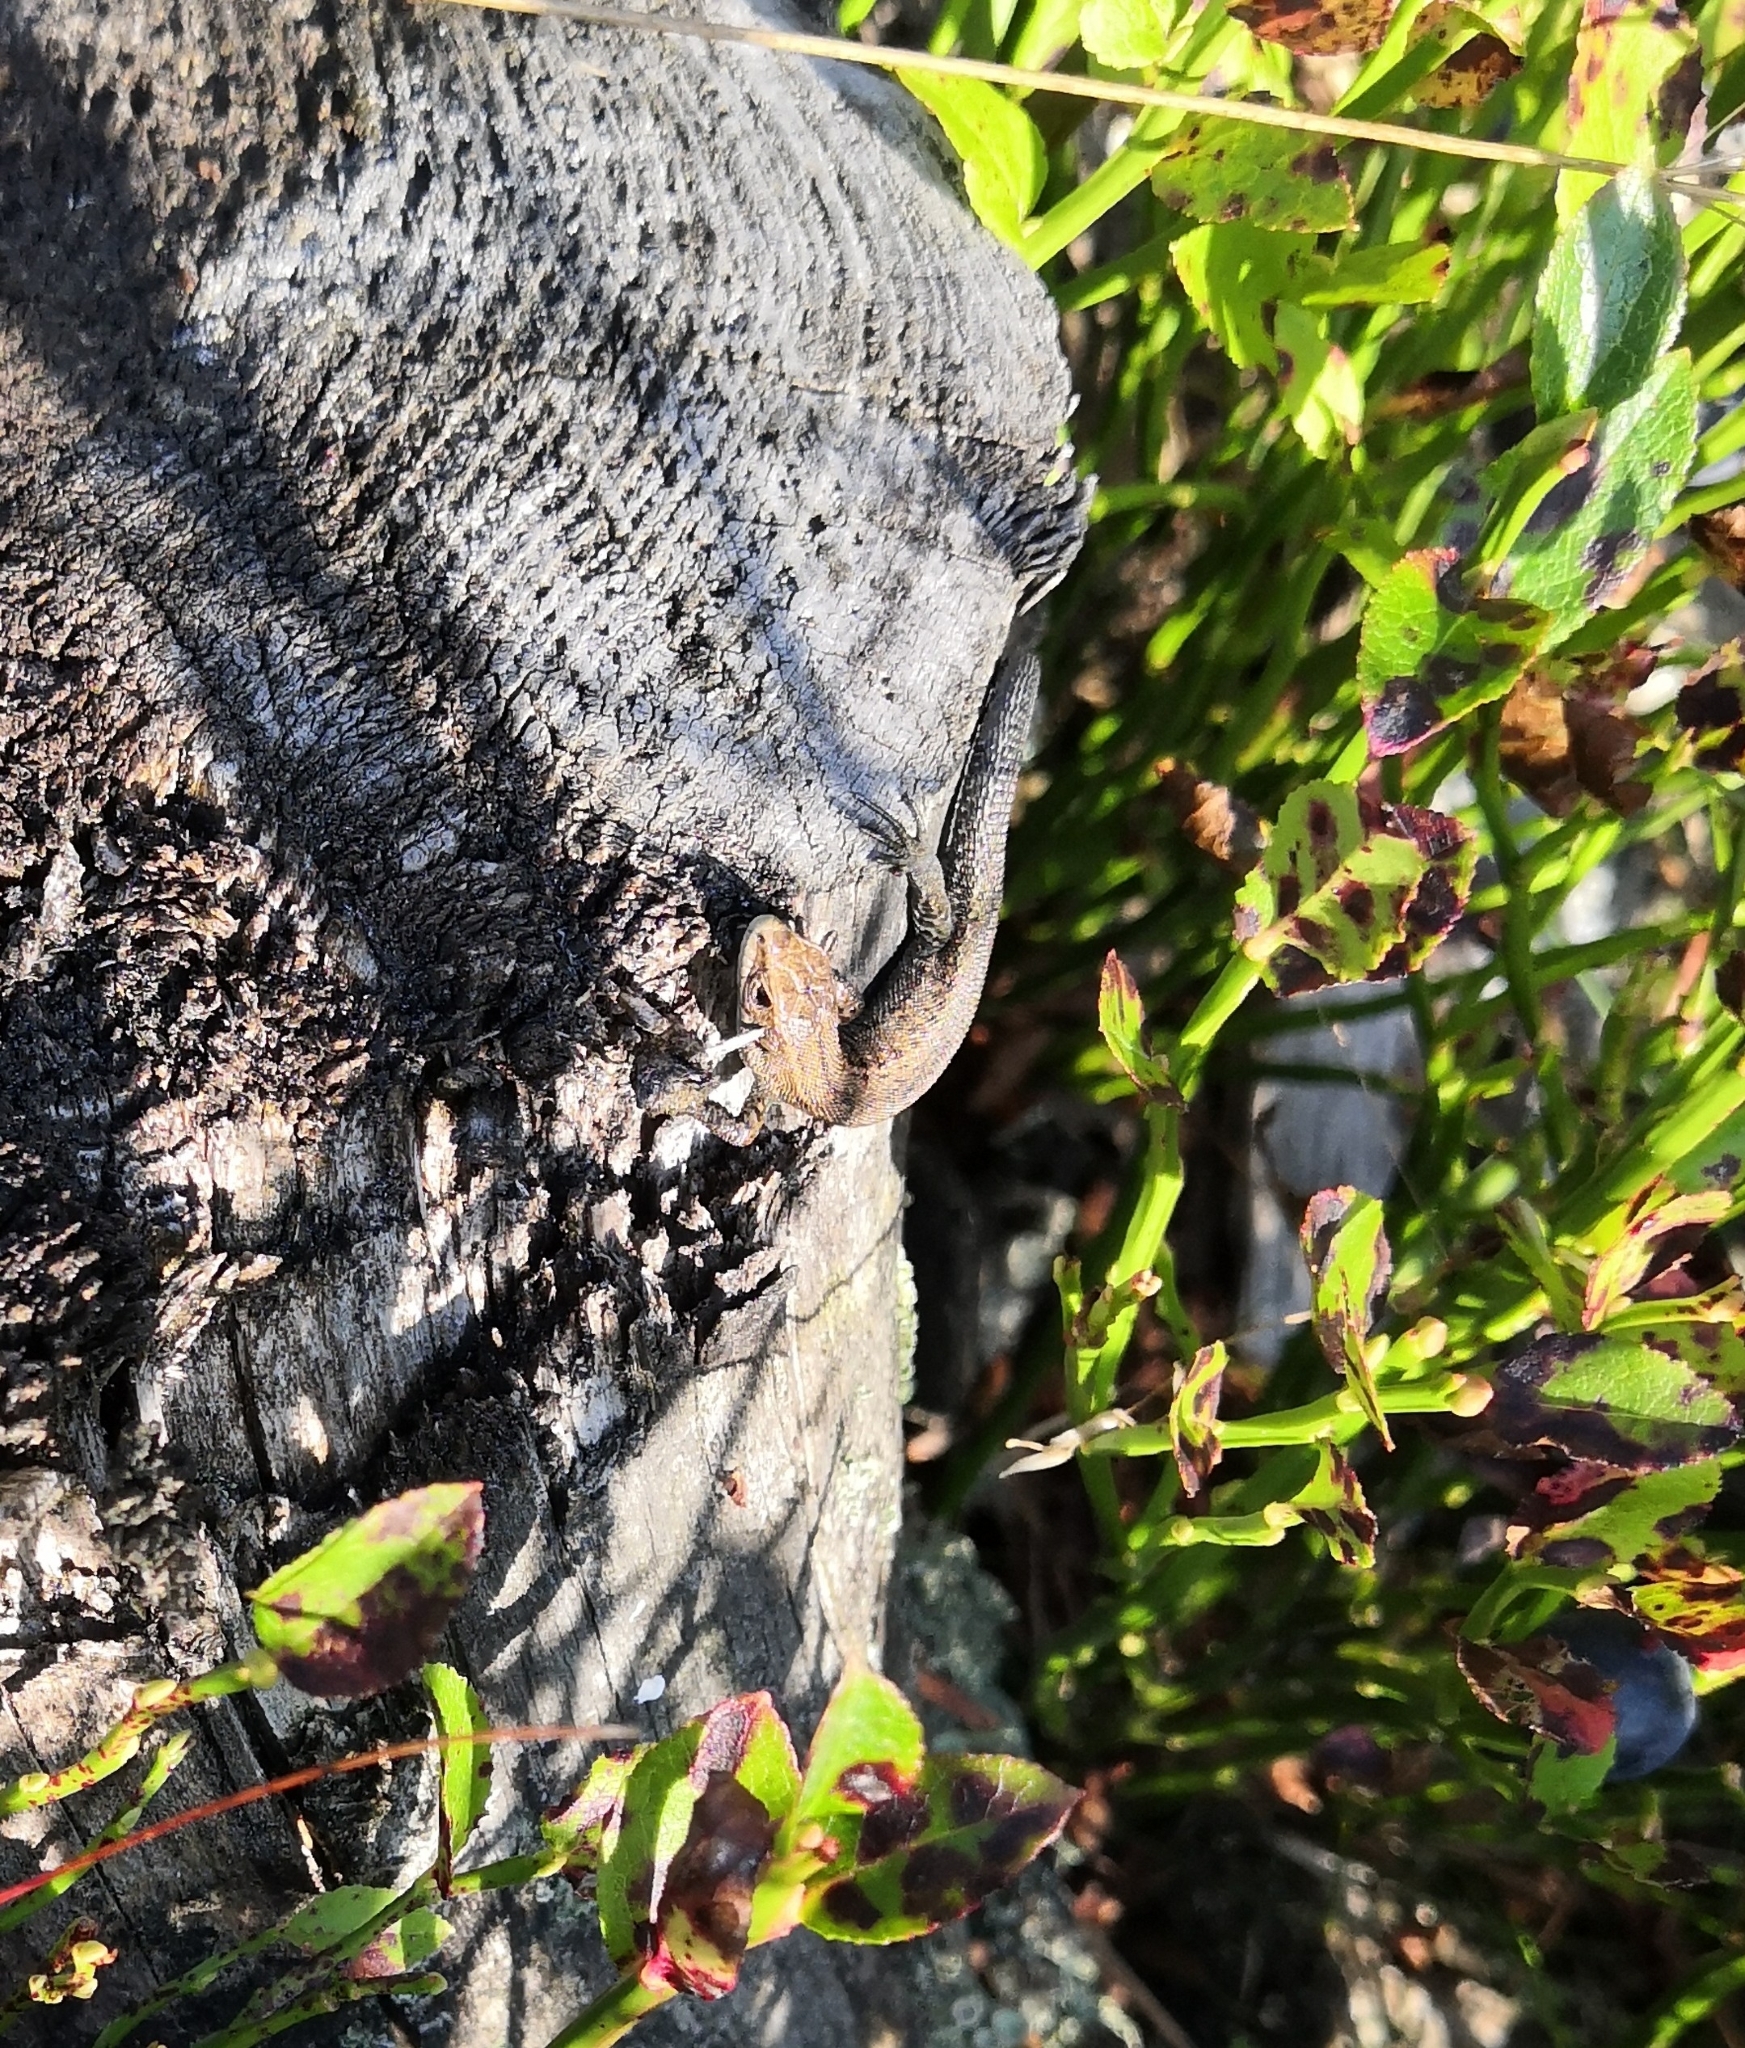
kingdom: Animalia
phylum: Chordata
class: Squamata
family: Lacertidae
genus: Zootoca
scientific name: Zootoca vivipara
